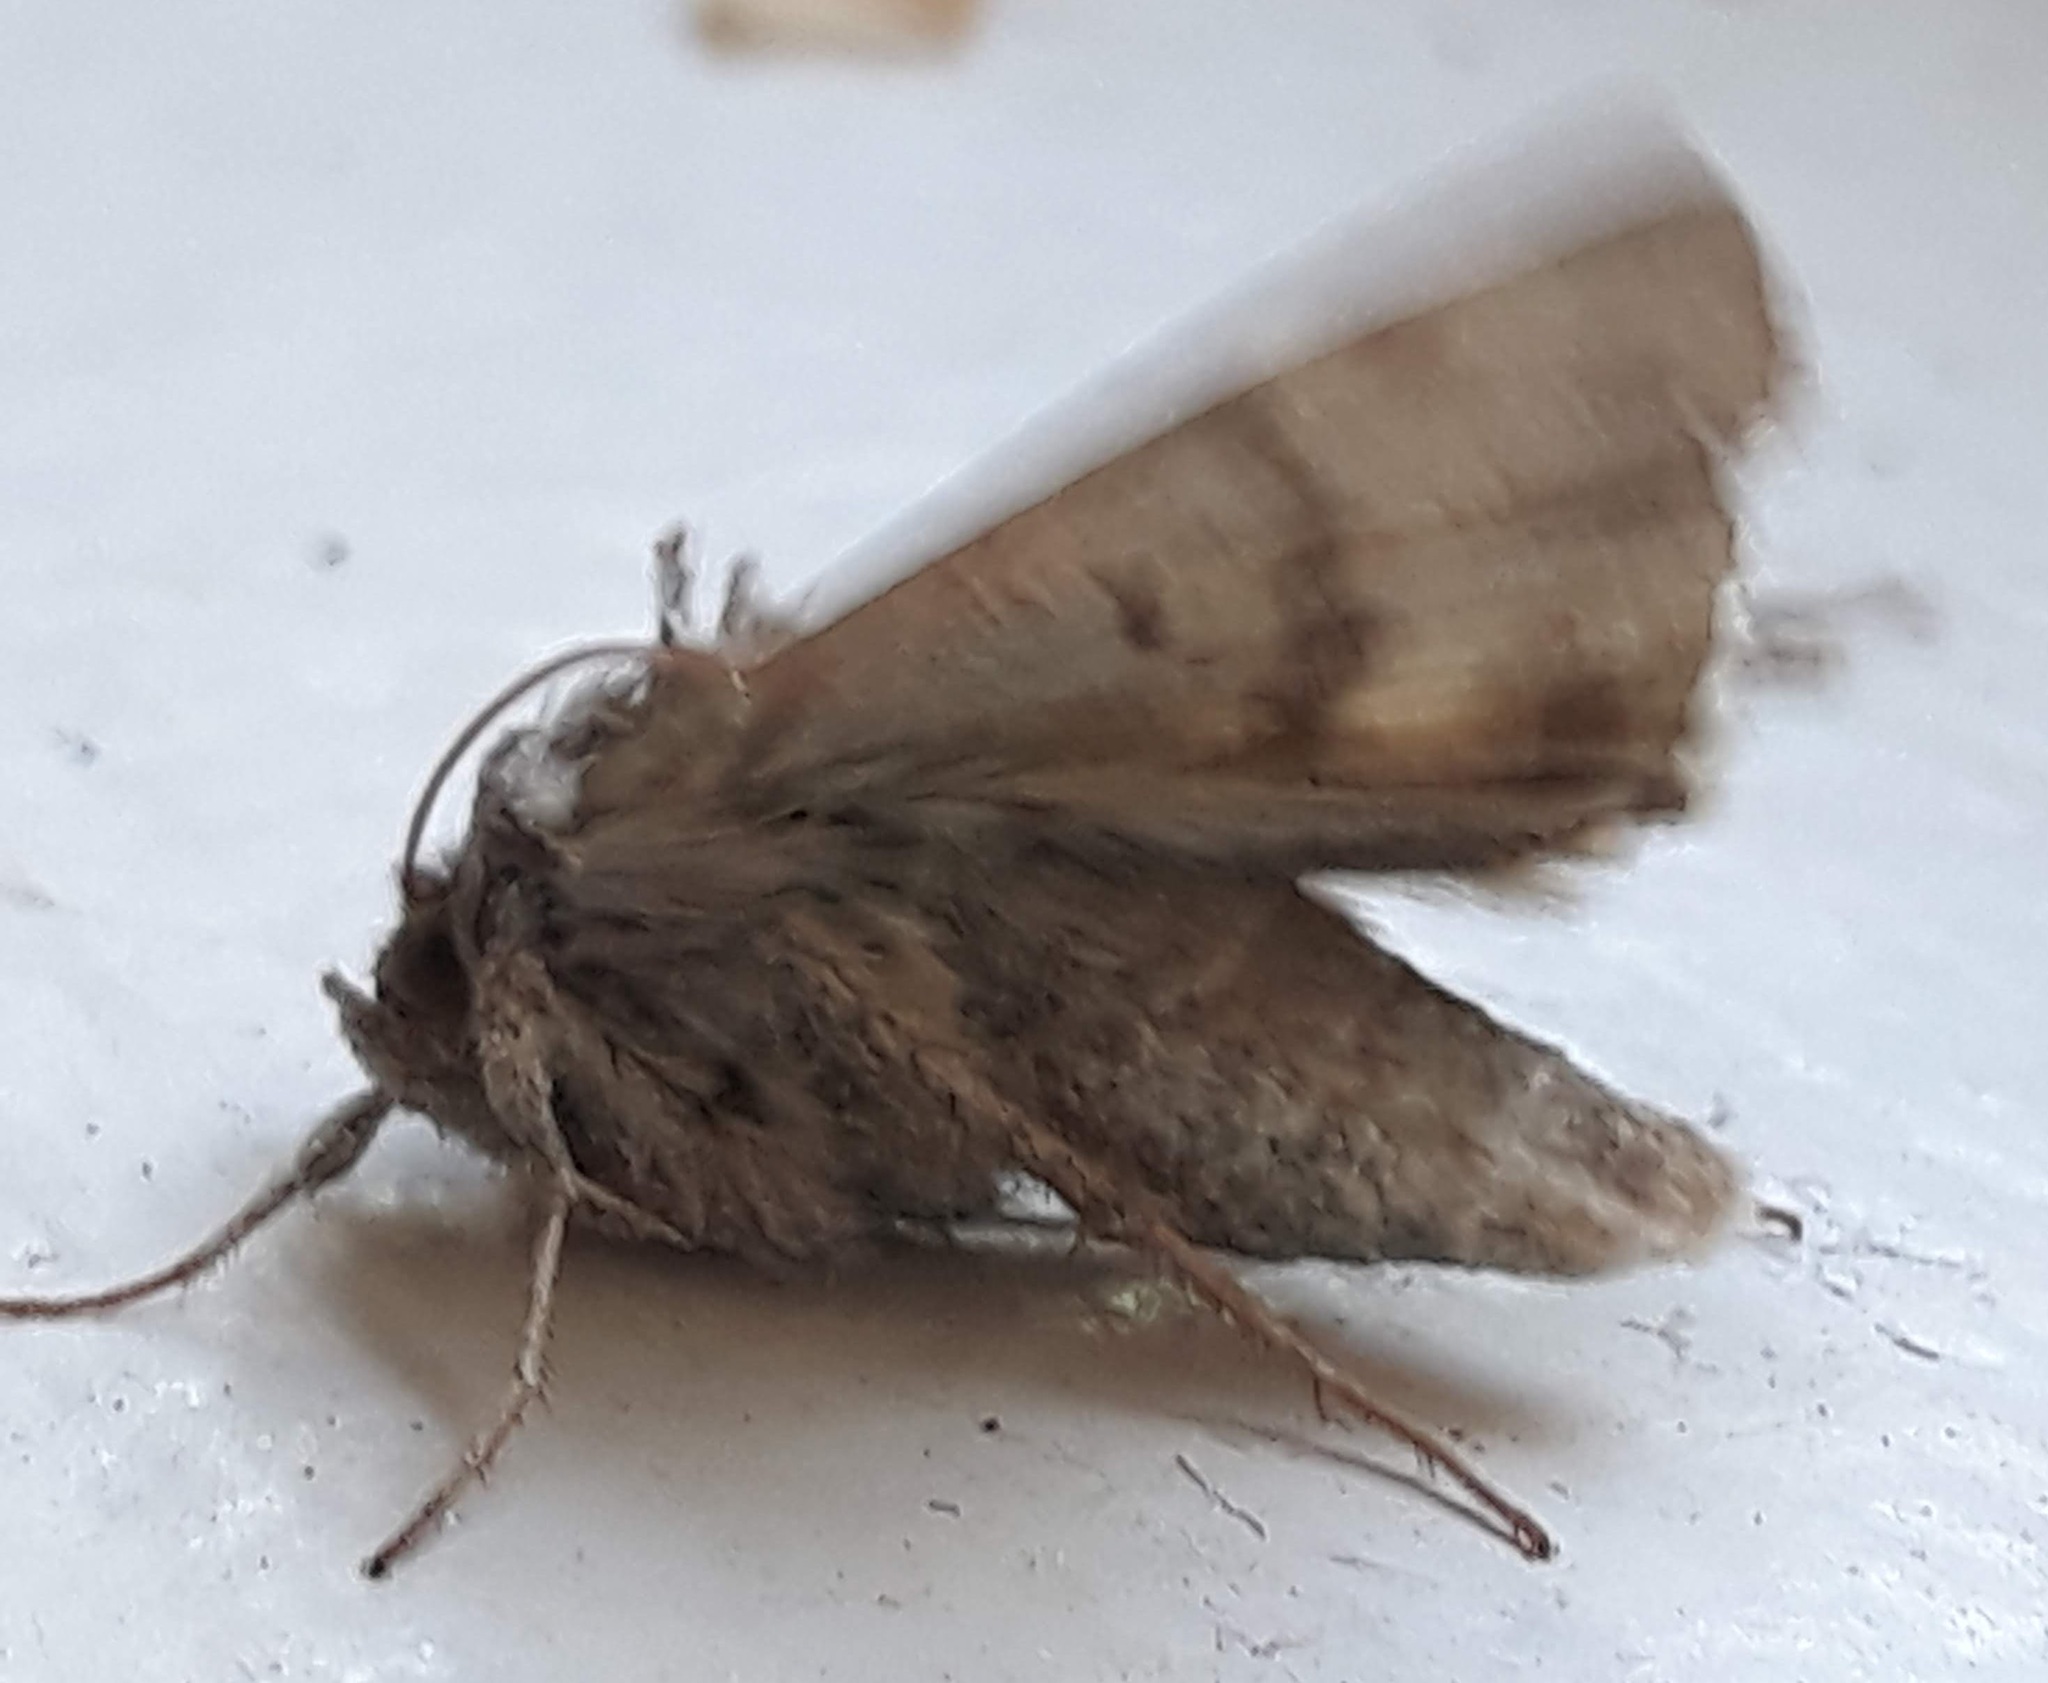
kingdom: Animalia
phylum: Arthropoda
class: Insecta
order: Lepidoptera
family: Noctuidae
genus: Anagrapha
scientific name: Anagrapha falcifera
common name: Celery looper
